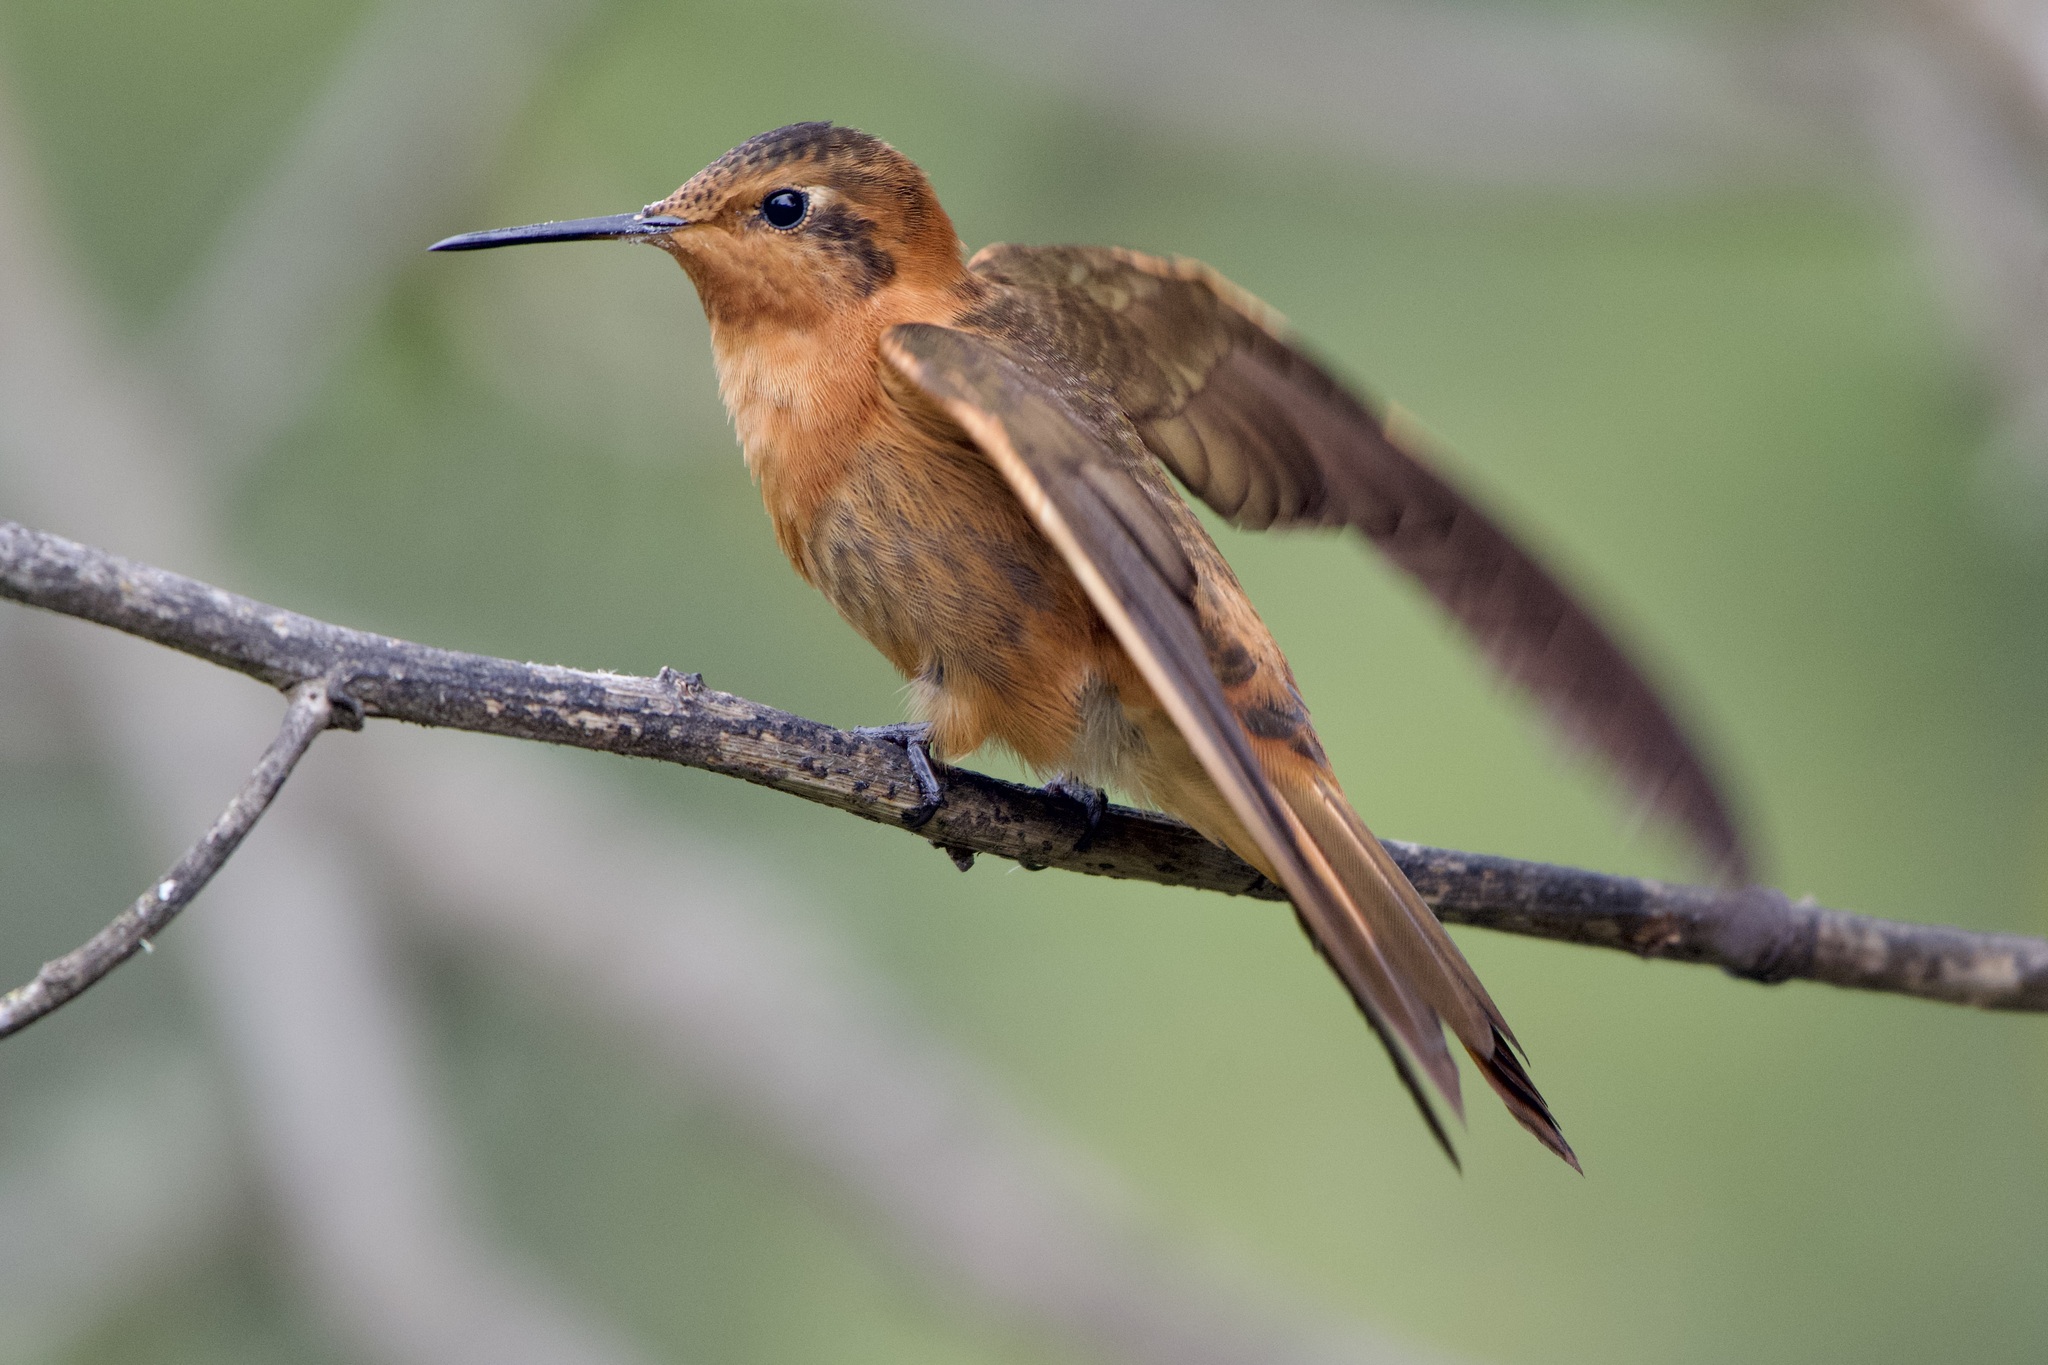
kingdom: Animalia
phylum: Chordata
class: Aves
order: Apodiformes
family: Trochilidae
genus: Aglaeactis
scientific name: Aglaeactis cupripennis
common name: Shining sunbeam
